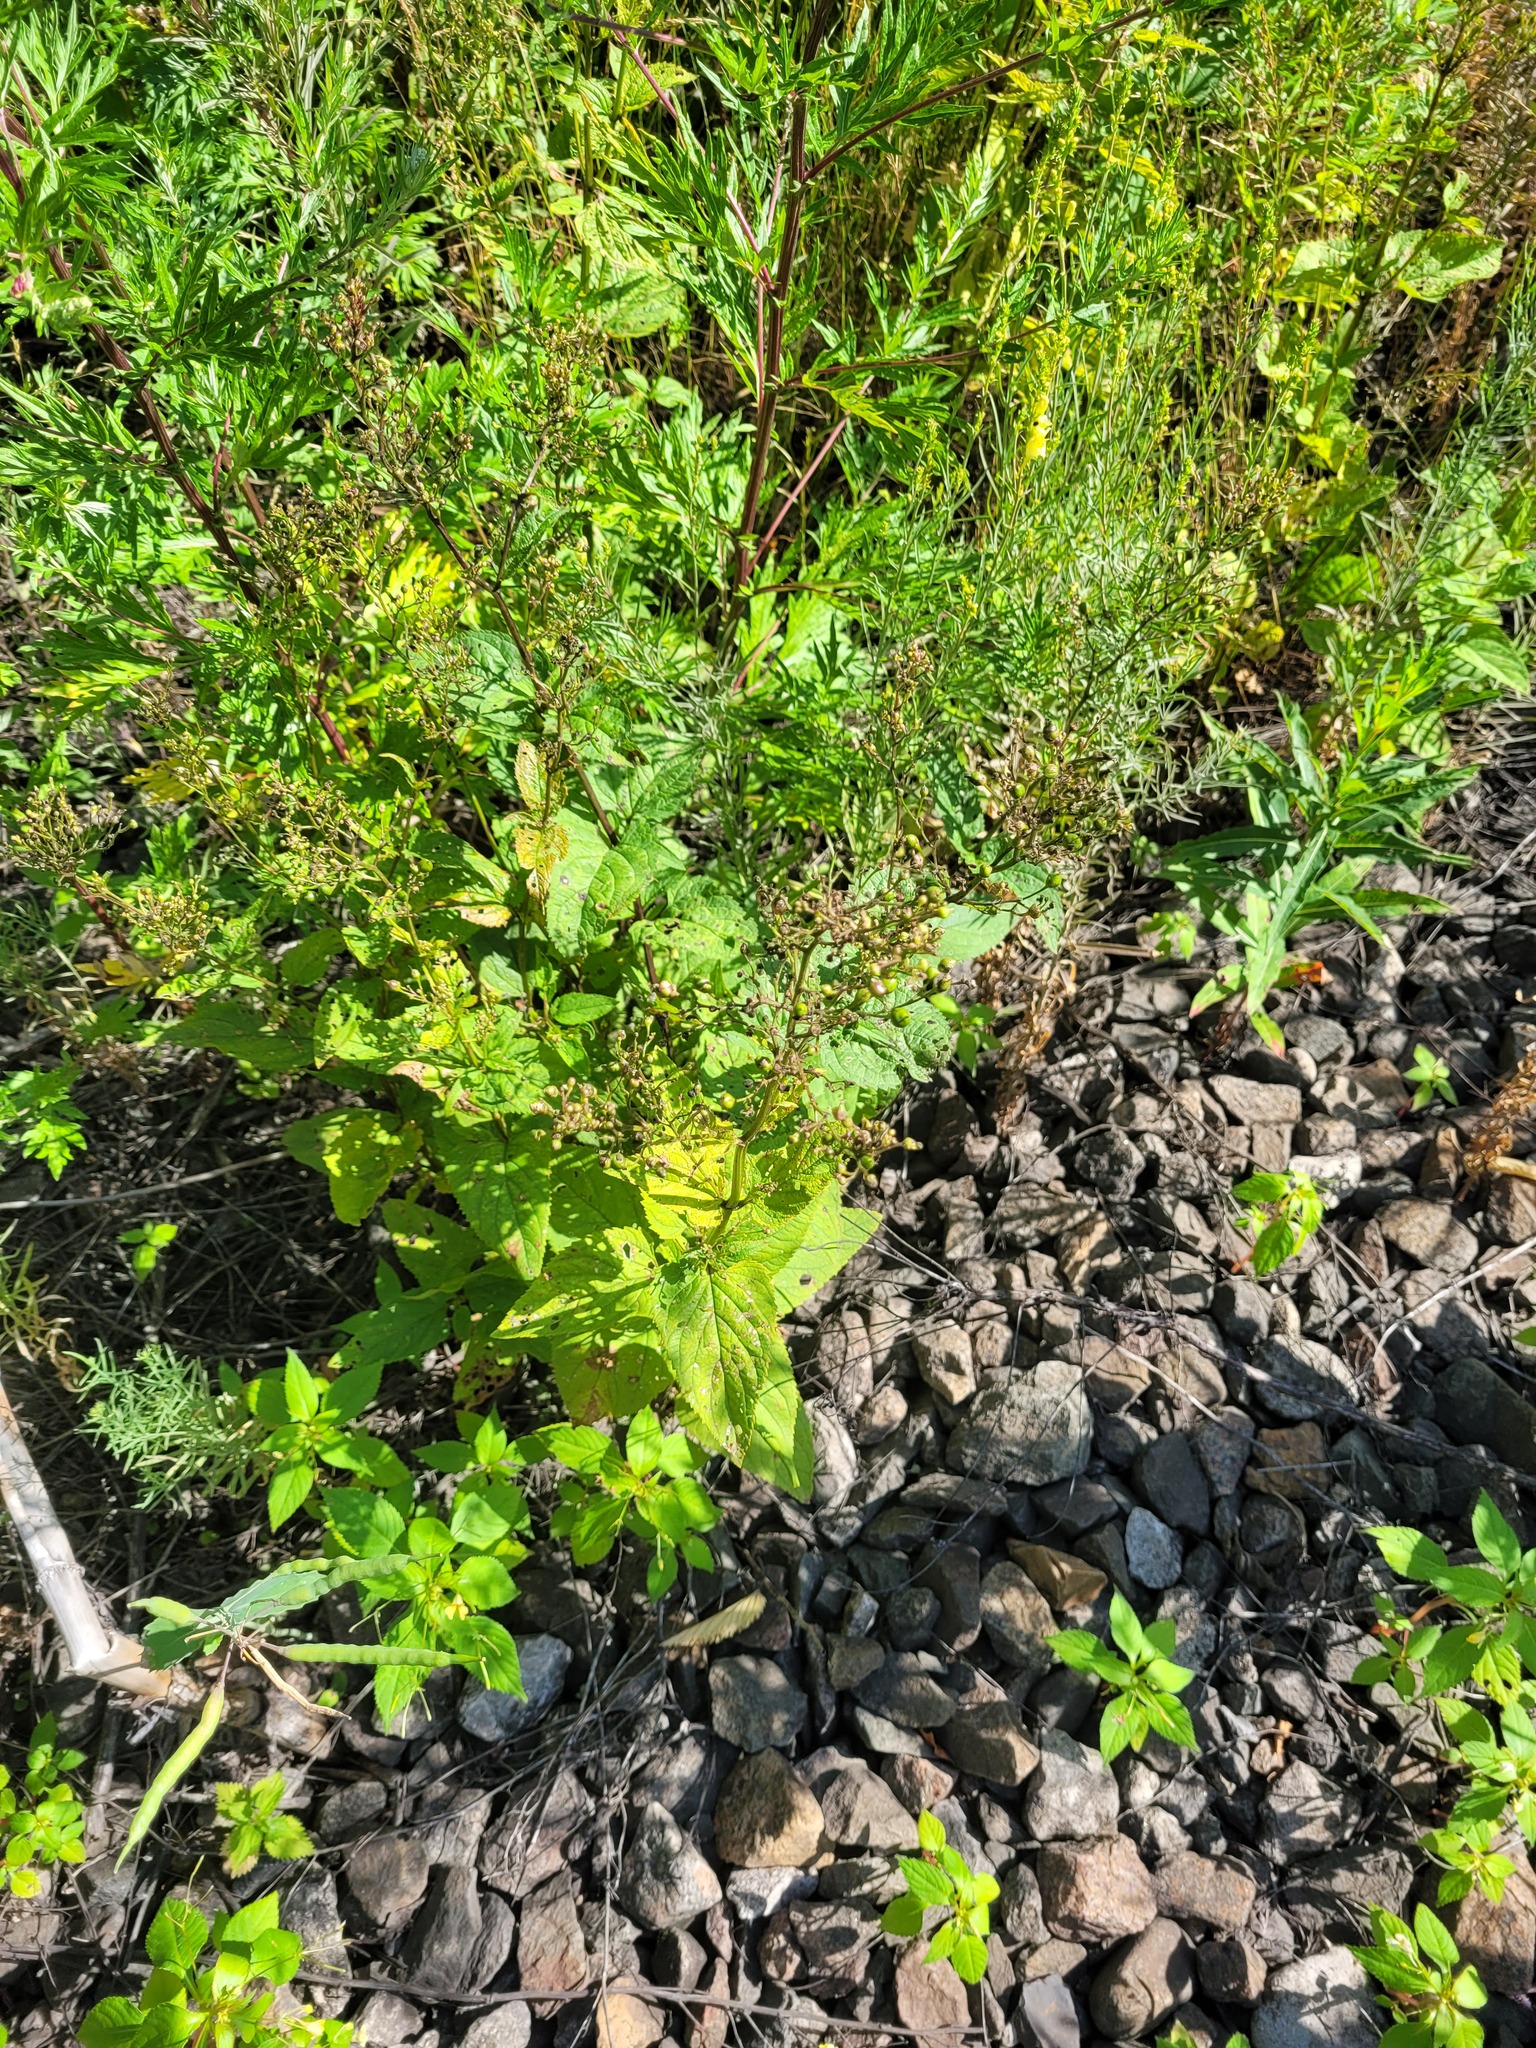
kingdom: Plantae
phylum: Tracheophyta
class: Magnoliopsida
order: Lamiales
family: Scrophulariaceae
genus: Scrophularia
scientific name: Scrophularia nodosa
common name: Common figwort
